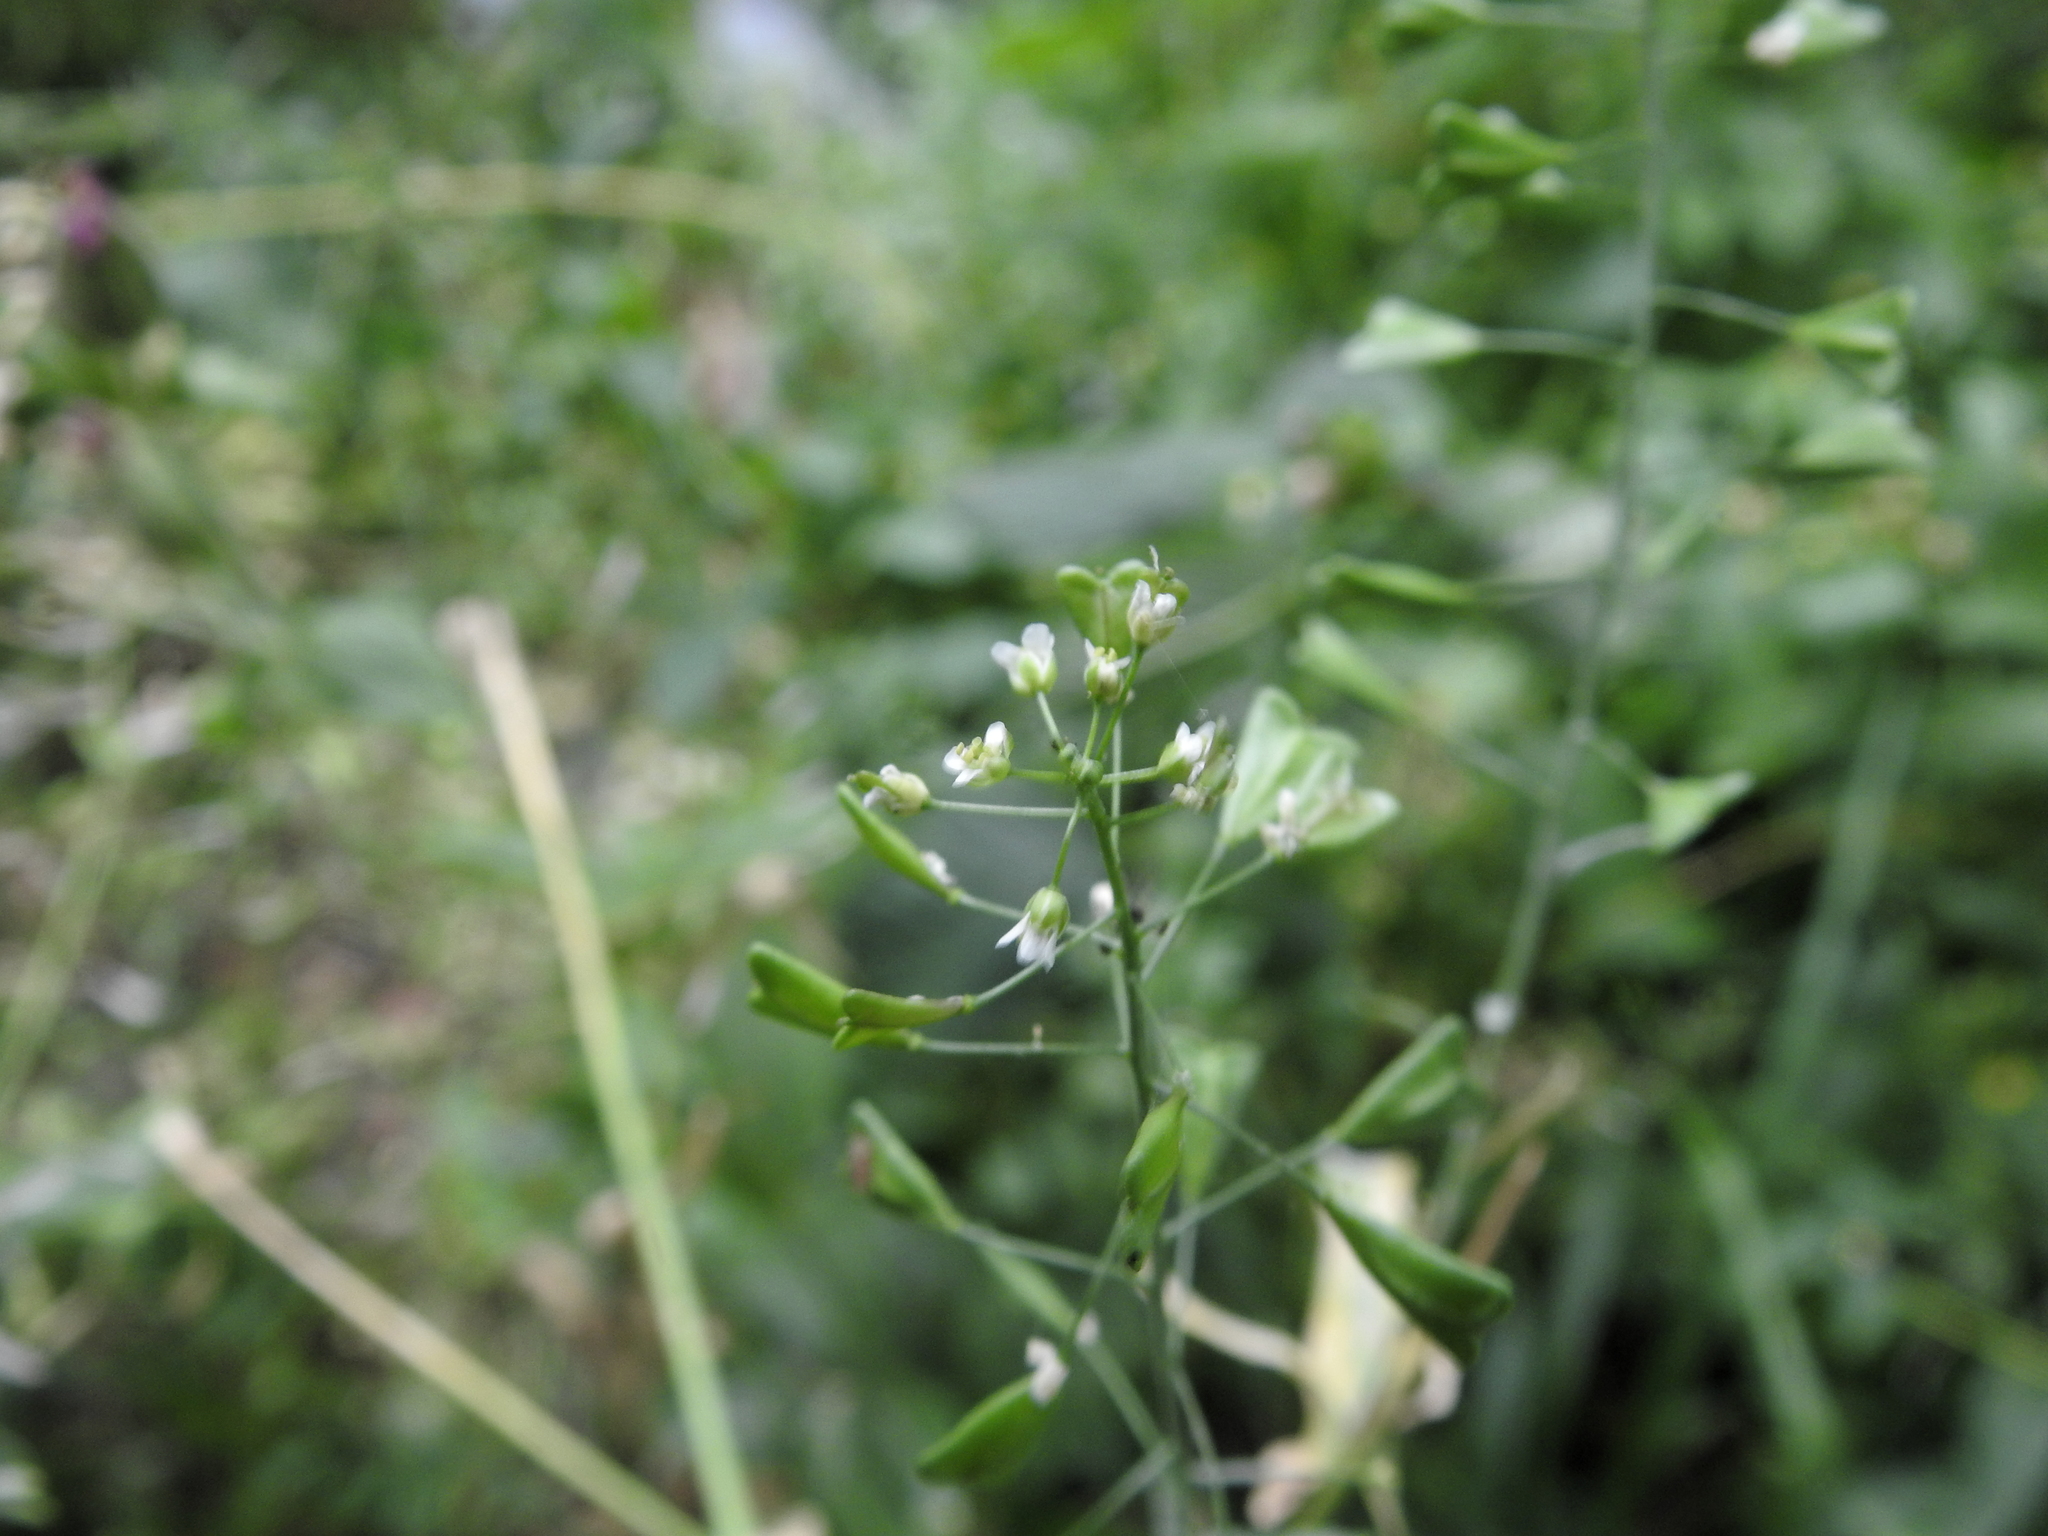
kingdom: Plantae
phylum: Tracheophyta
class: Magnoliopsida
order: Brassicales
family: Brassicaceae
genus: Capsella
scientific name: Capsella bursa-pastoris
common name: Shepherd's purse
